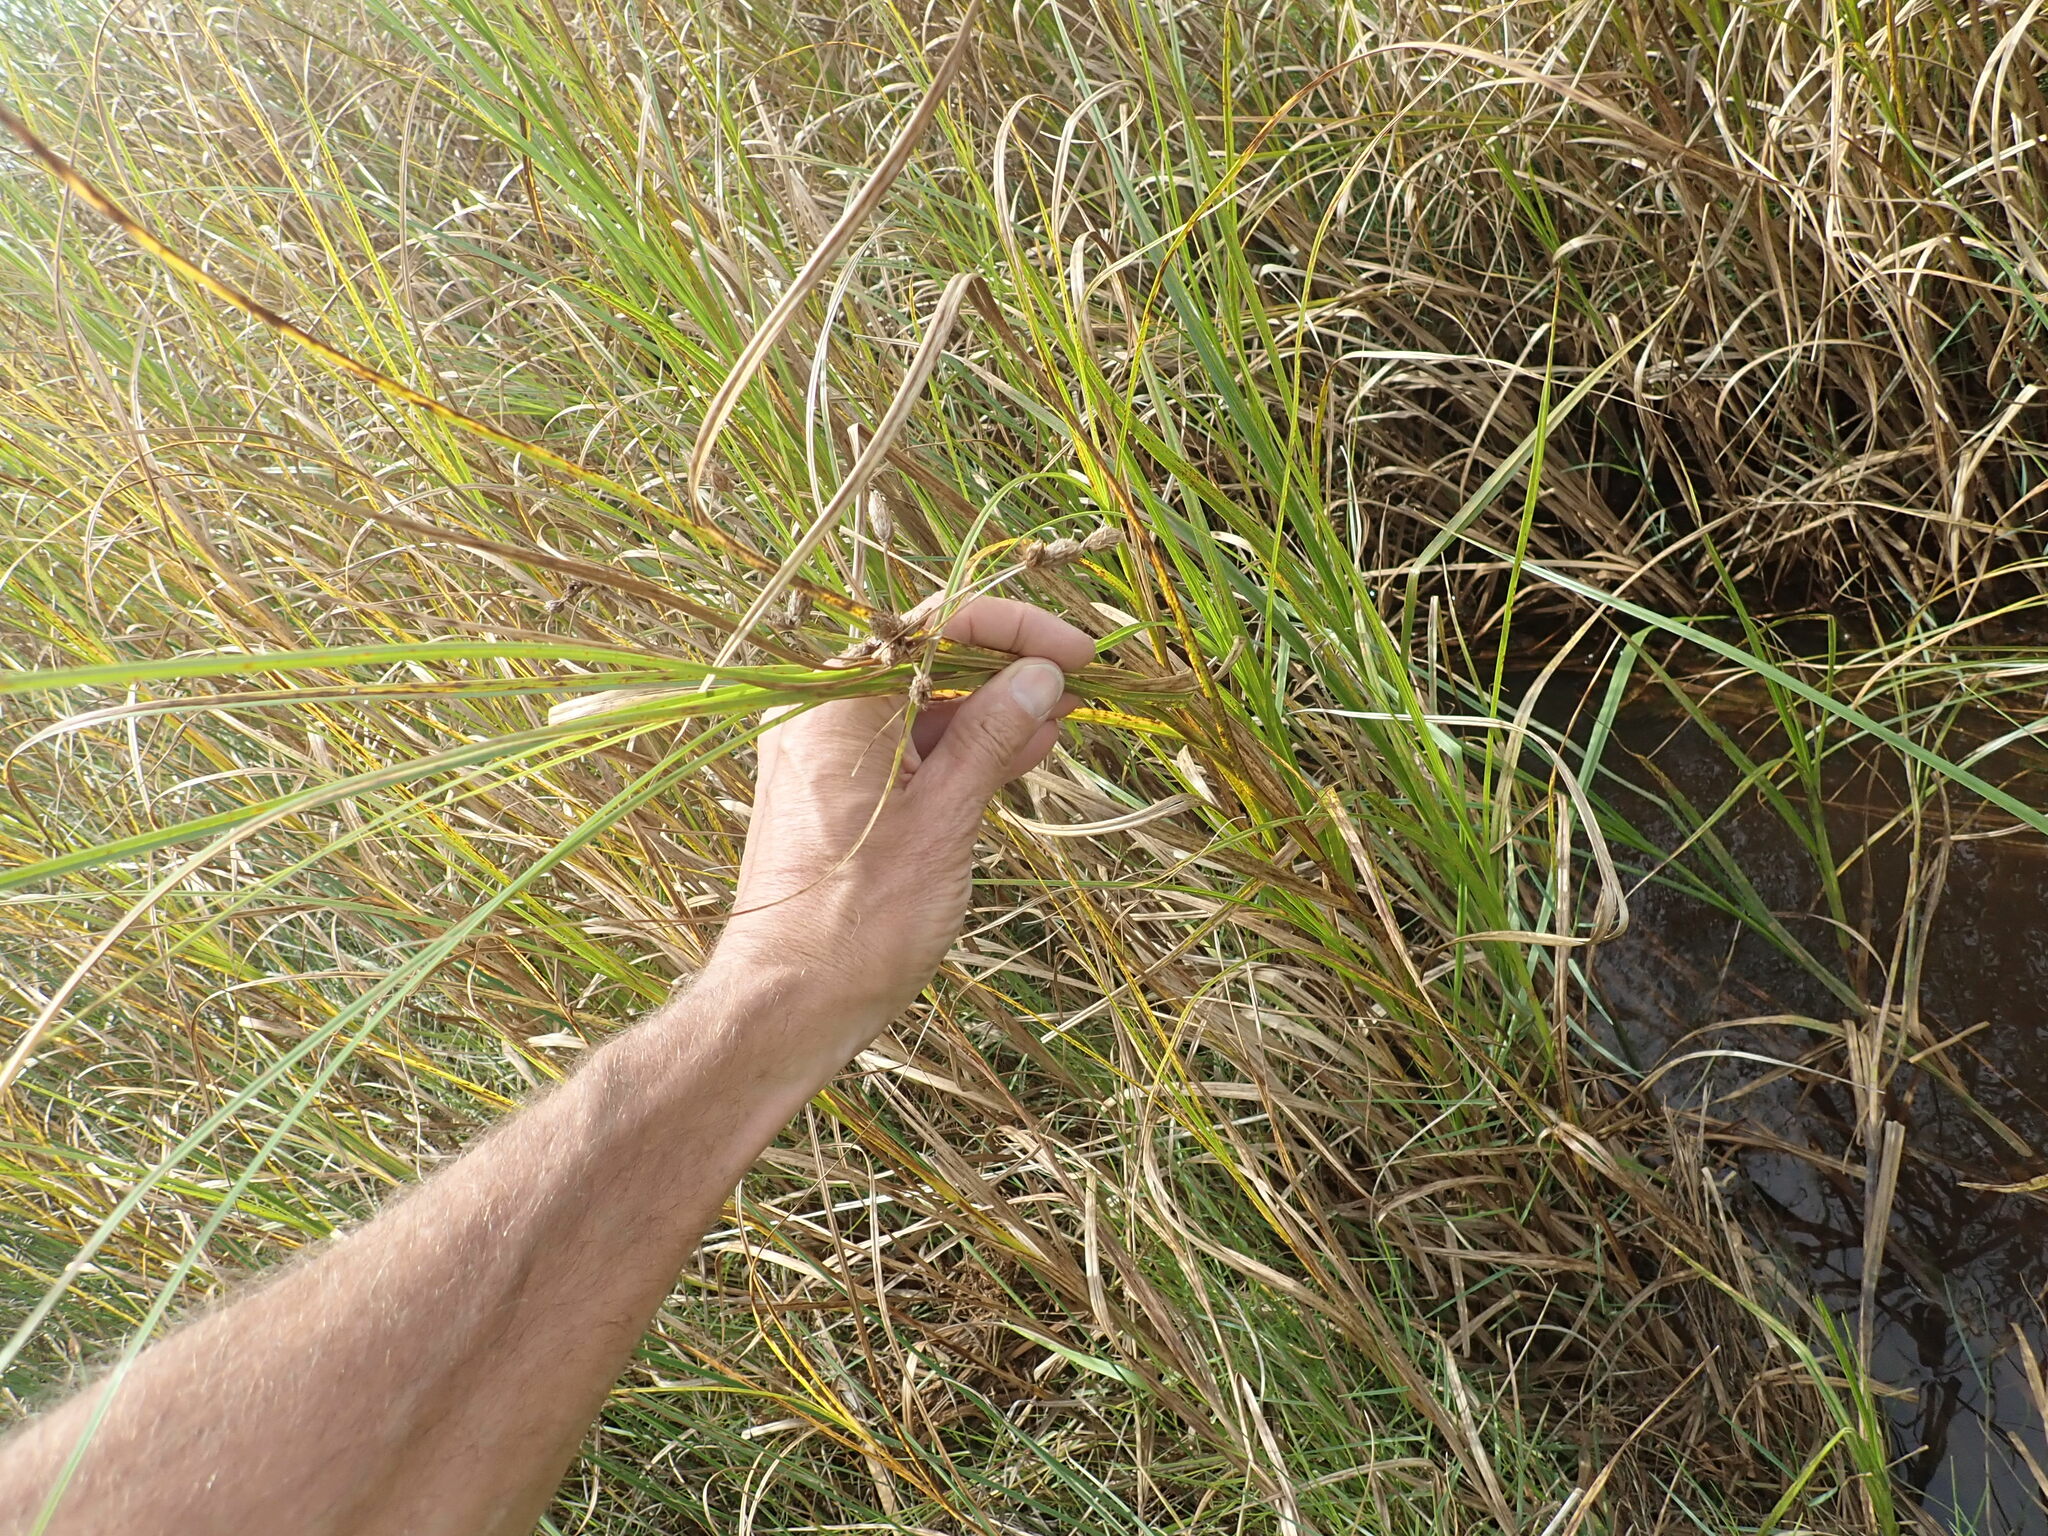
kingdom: Plantae
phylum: Tracheophyta
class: Liliopsida
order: Poales
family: Cyperaceae
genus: Bolboschoenus
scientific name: Bolboschoenus caldwellii
